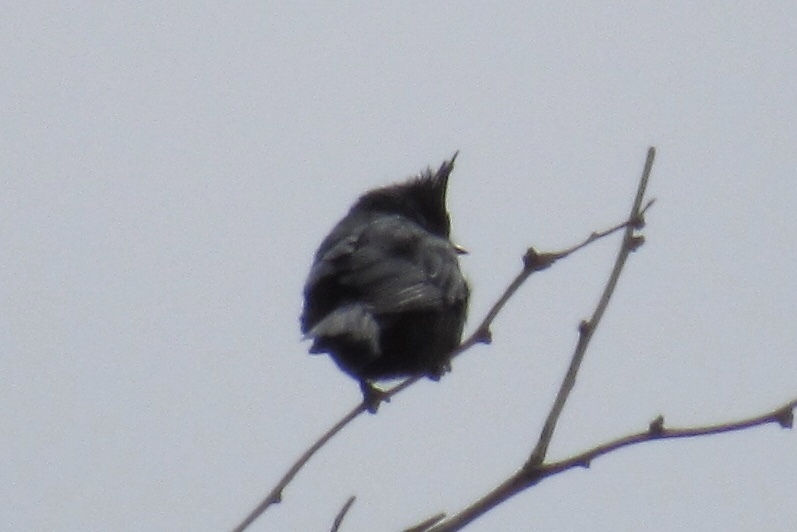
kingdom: Animalia
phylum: Chordata
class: Aves
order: Passeriformes
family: Ptilogonatidae
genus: Phainopepla
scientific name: Phainopepla nitens
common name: Phainopepla
